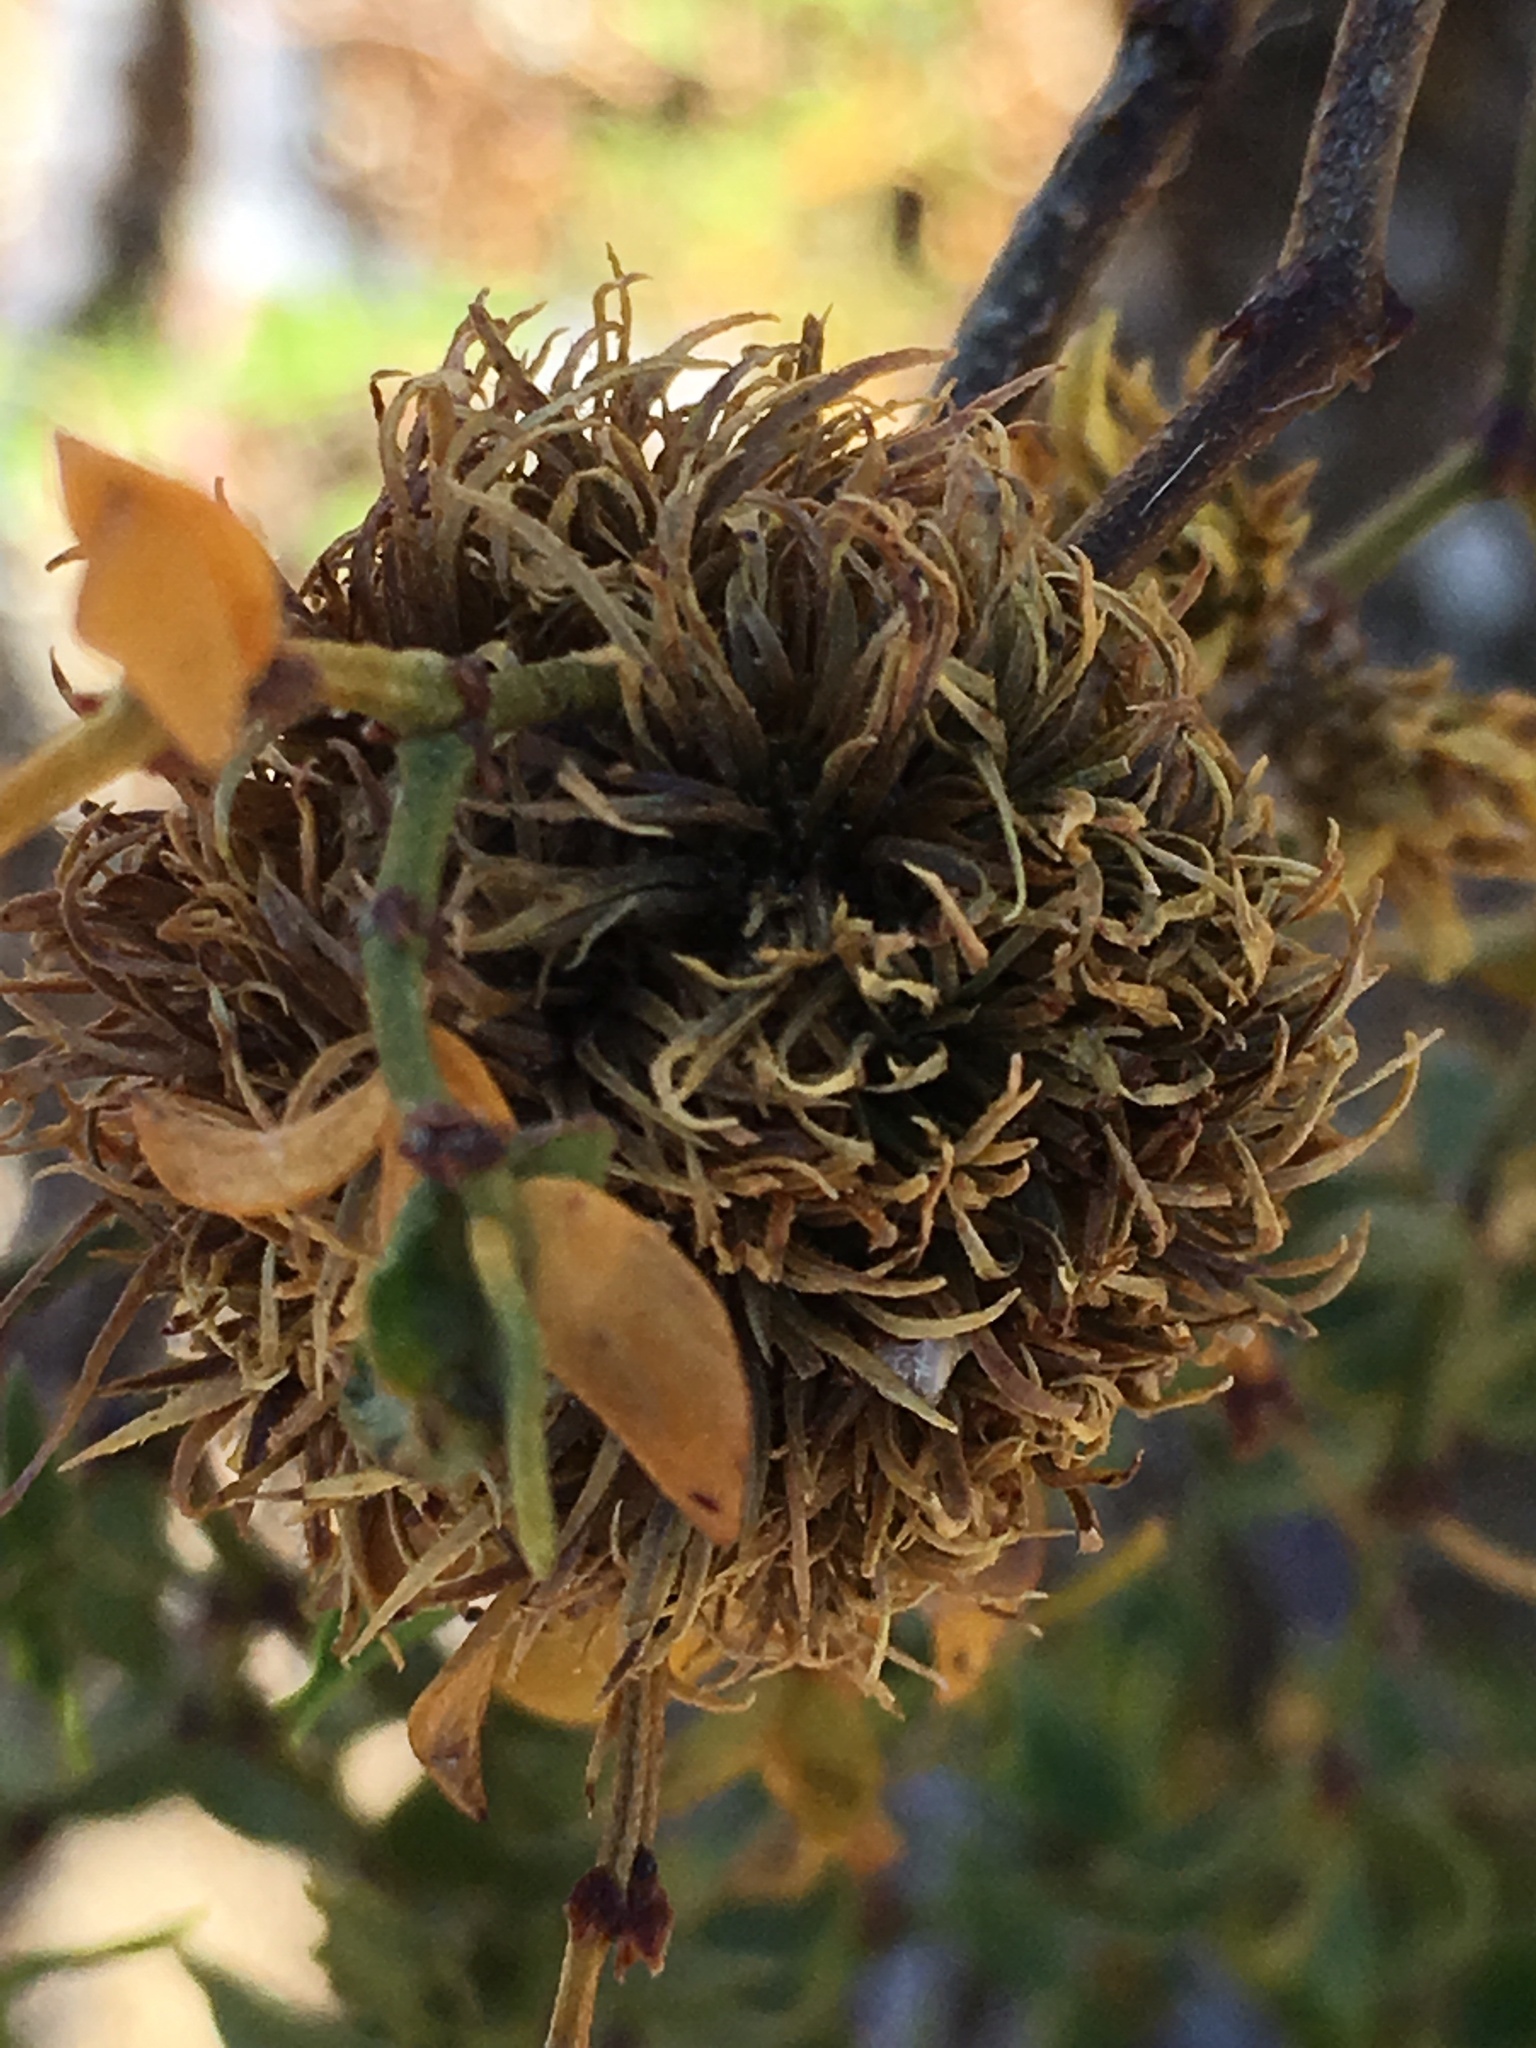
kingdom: Plantae
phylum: Tracheophyta
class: Magnoliopsida
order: Zygophyllales
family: Zygophyllaceae
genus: Larrea
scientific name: Larrea tridentata
